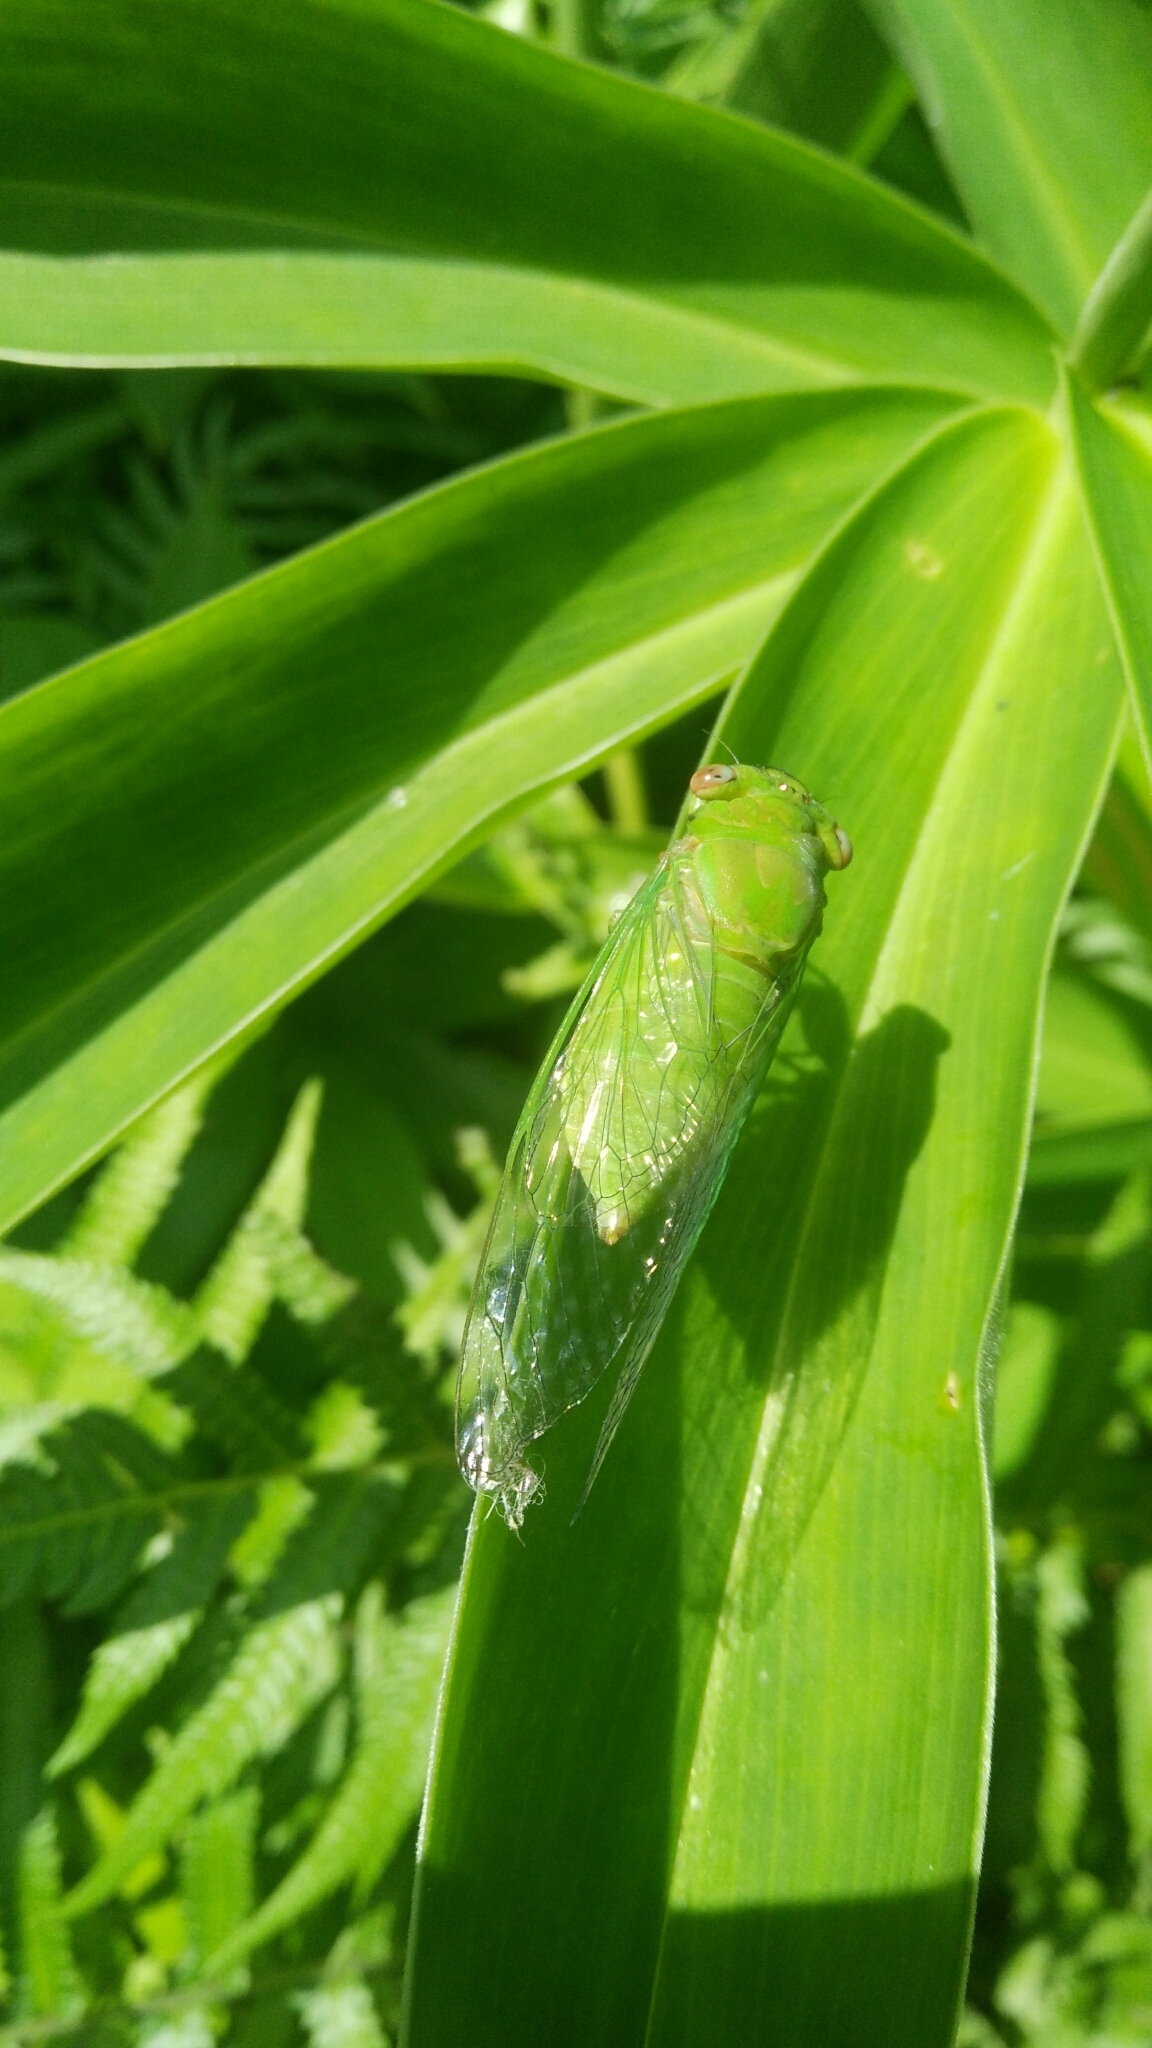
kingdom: Animalia
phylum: Arthropoda
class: Insecta
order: Hemiptera
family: Cicadidae
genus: Chremistica
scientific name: Chremistica ochracea
